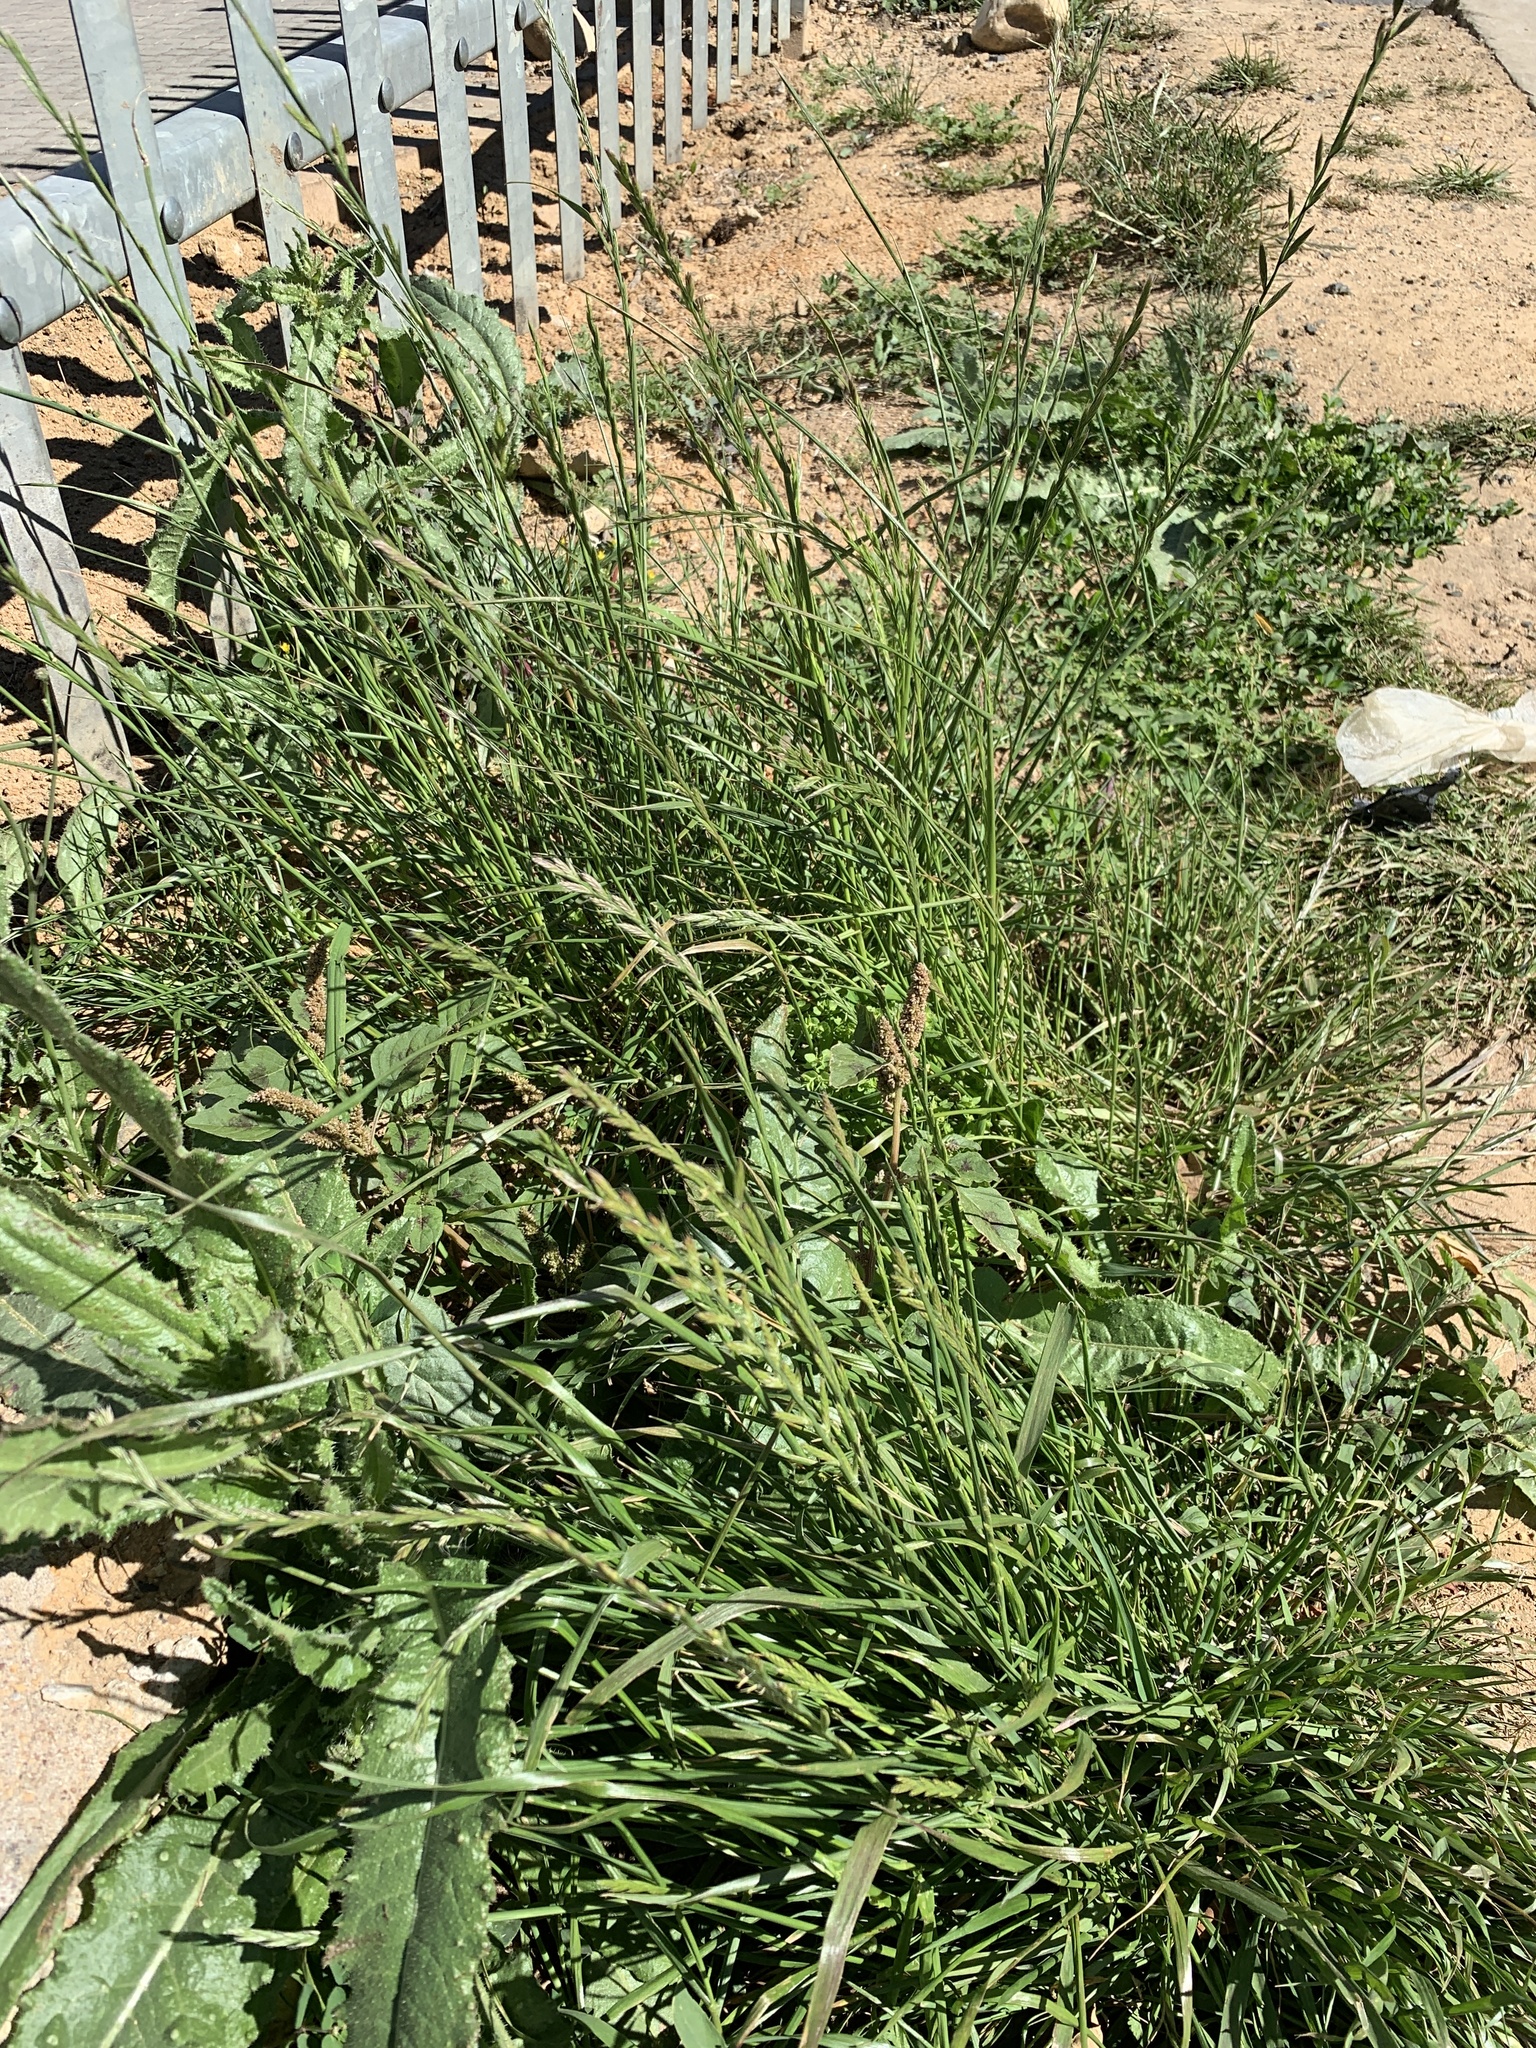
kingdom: Plantae
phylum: Tracheophyta
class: Liliopsida
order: Poales
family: Poaceae
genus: Lolium
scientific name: Lolium multiflorum
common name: Annual ryegrass
